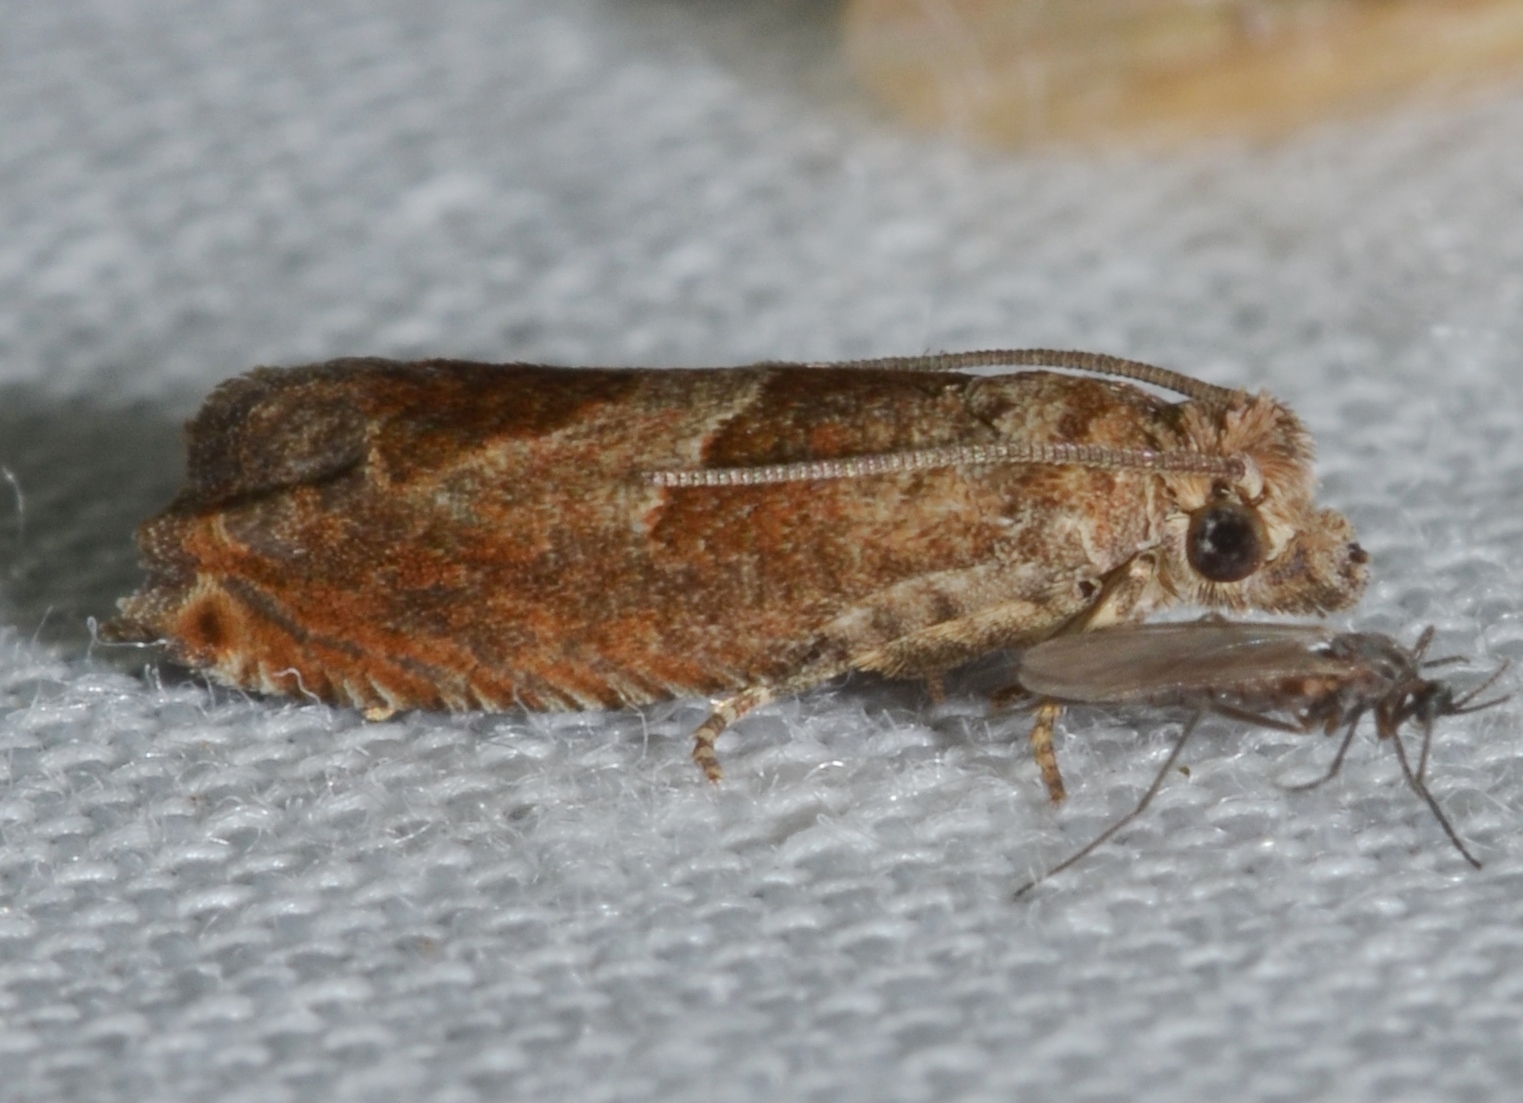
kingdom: Animalia
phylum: Arthropoda
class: Insecta
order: Lepidoptera
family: Tortricidae
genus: Sonia
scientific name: Sonia
